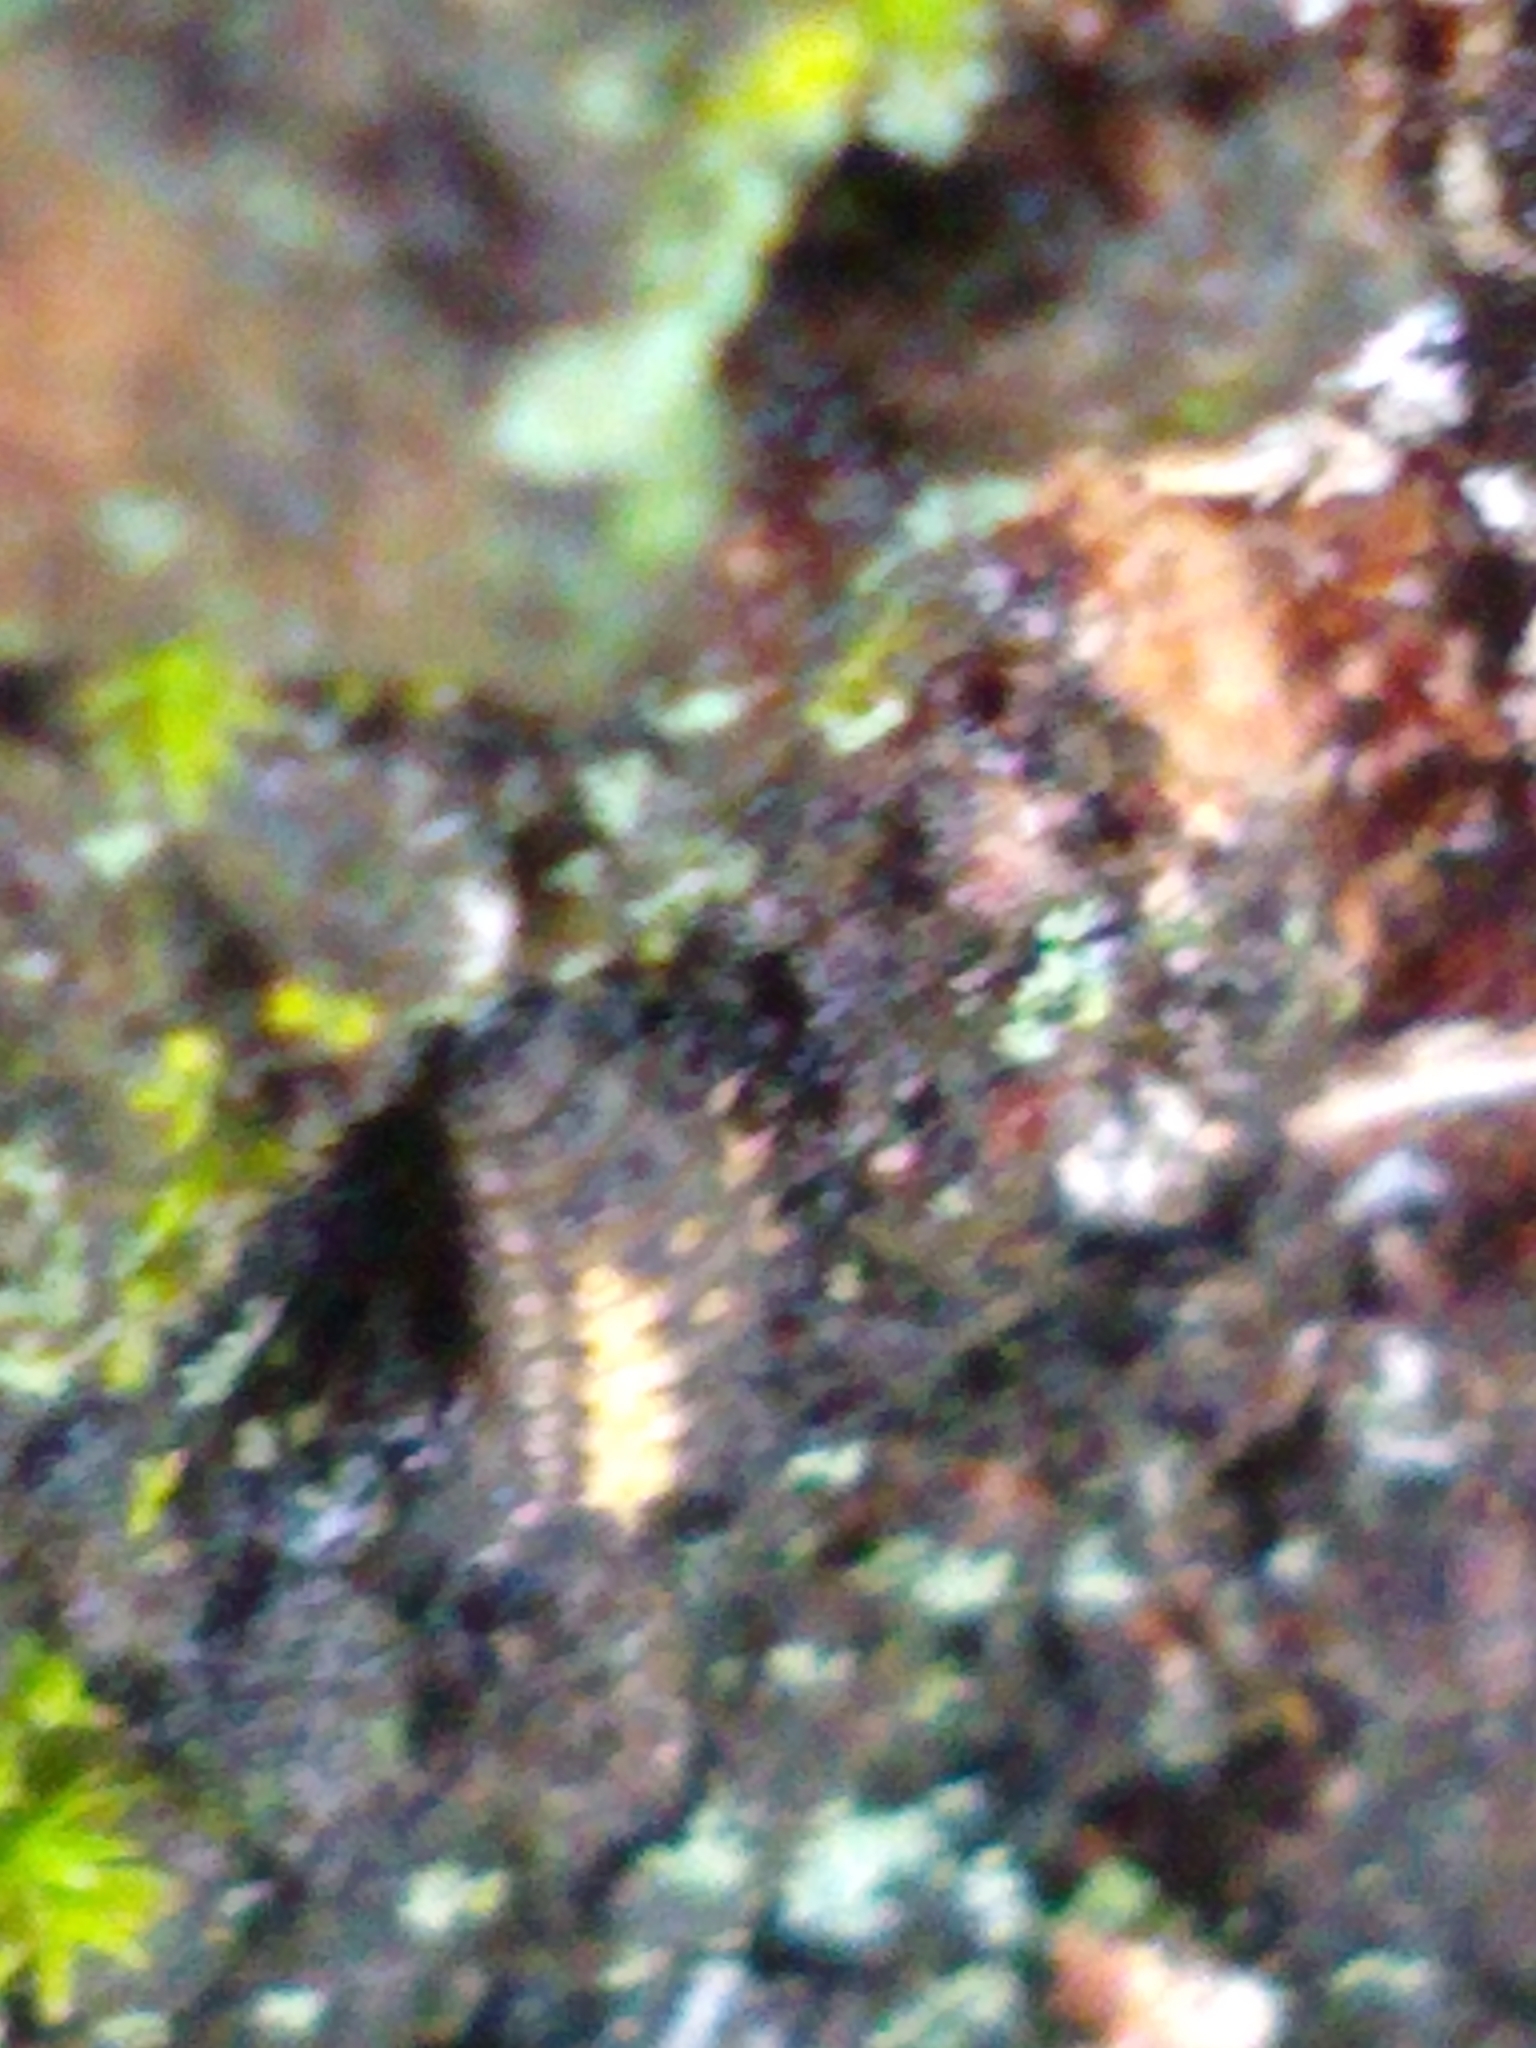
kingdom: Animalia
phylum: Arthropoda
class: Insecta
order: Coleoptera
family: Coccinellidae
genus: Harmonia
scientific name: Harmonia axyridis
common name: Harlequin ladybird
